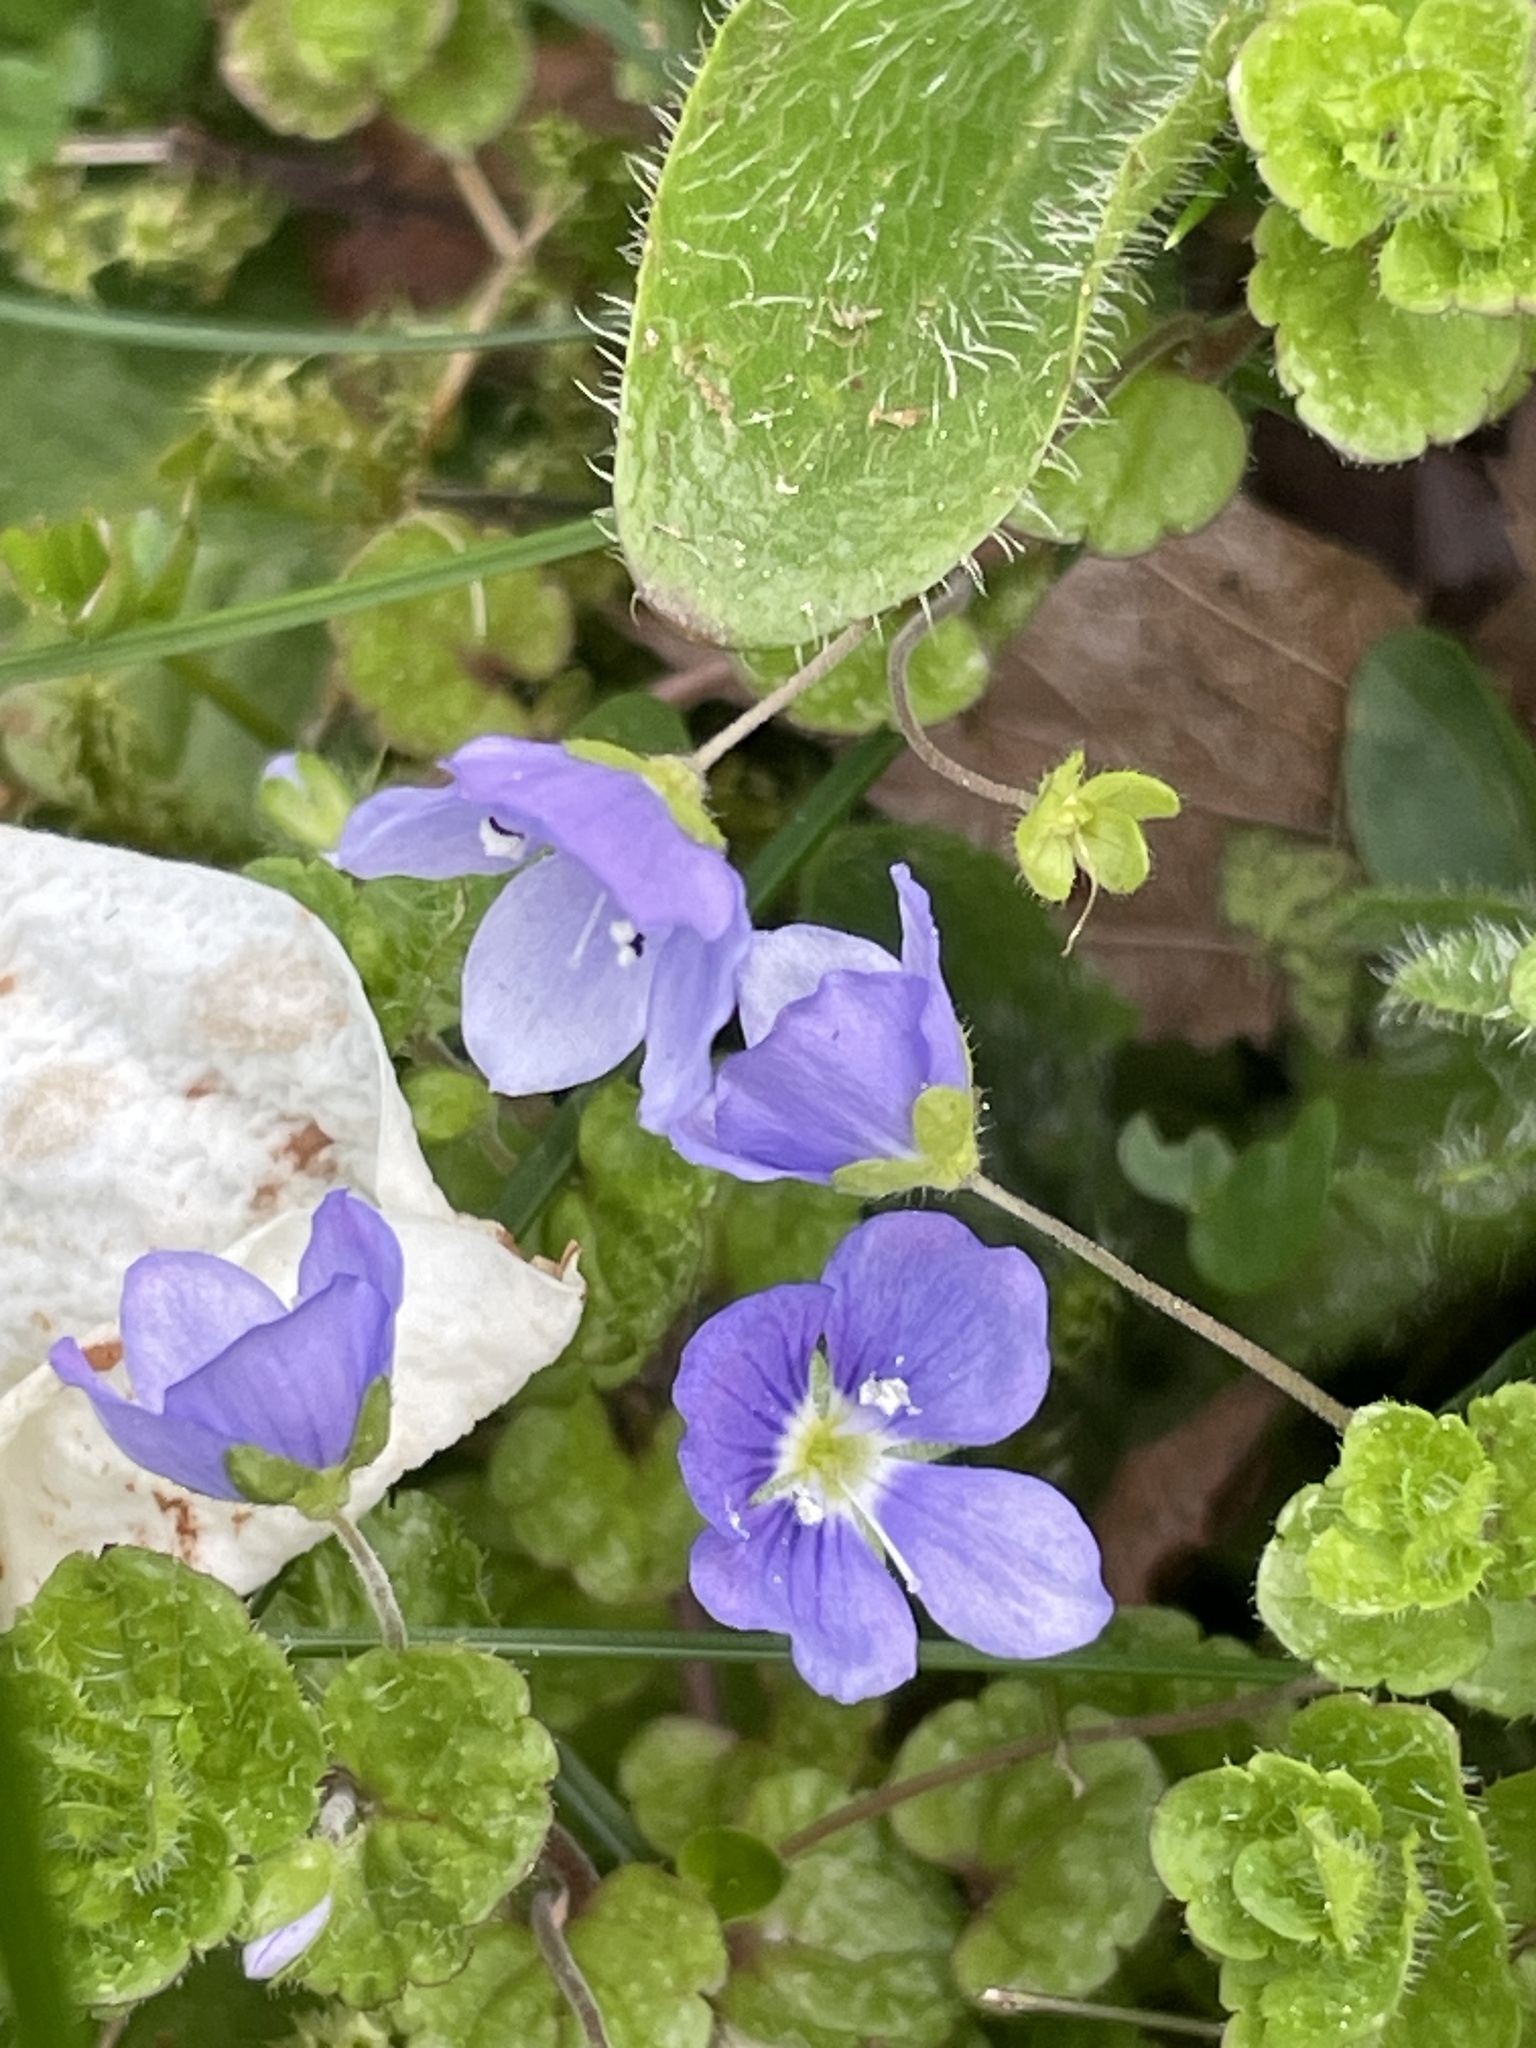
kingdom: Plantae
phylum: Tracheophyta
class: Magnoliopsida
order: Lamiales
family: Plantaginaceae
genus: Veronica
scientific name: Veronica filiformis
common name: Slender speedwell
